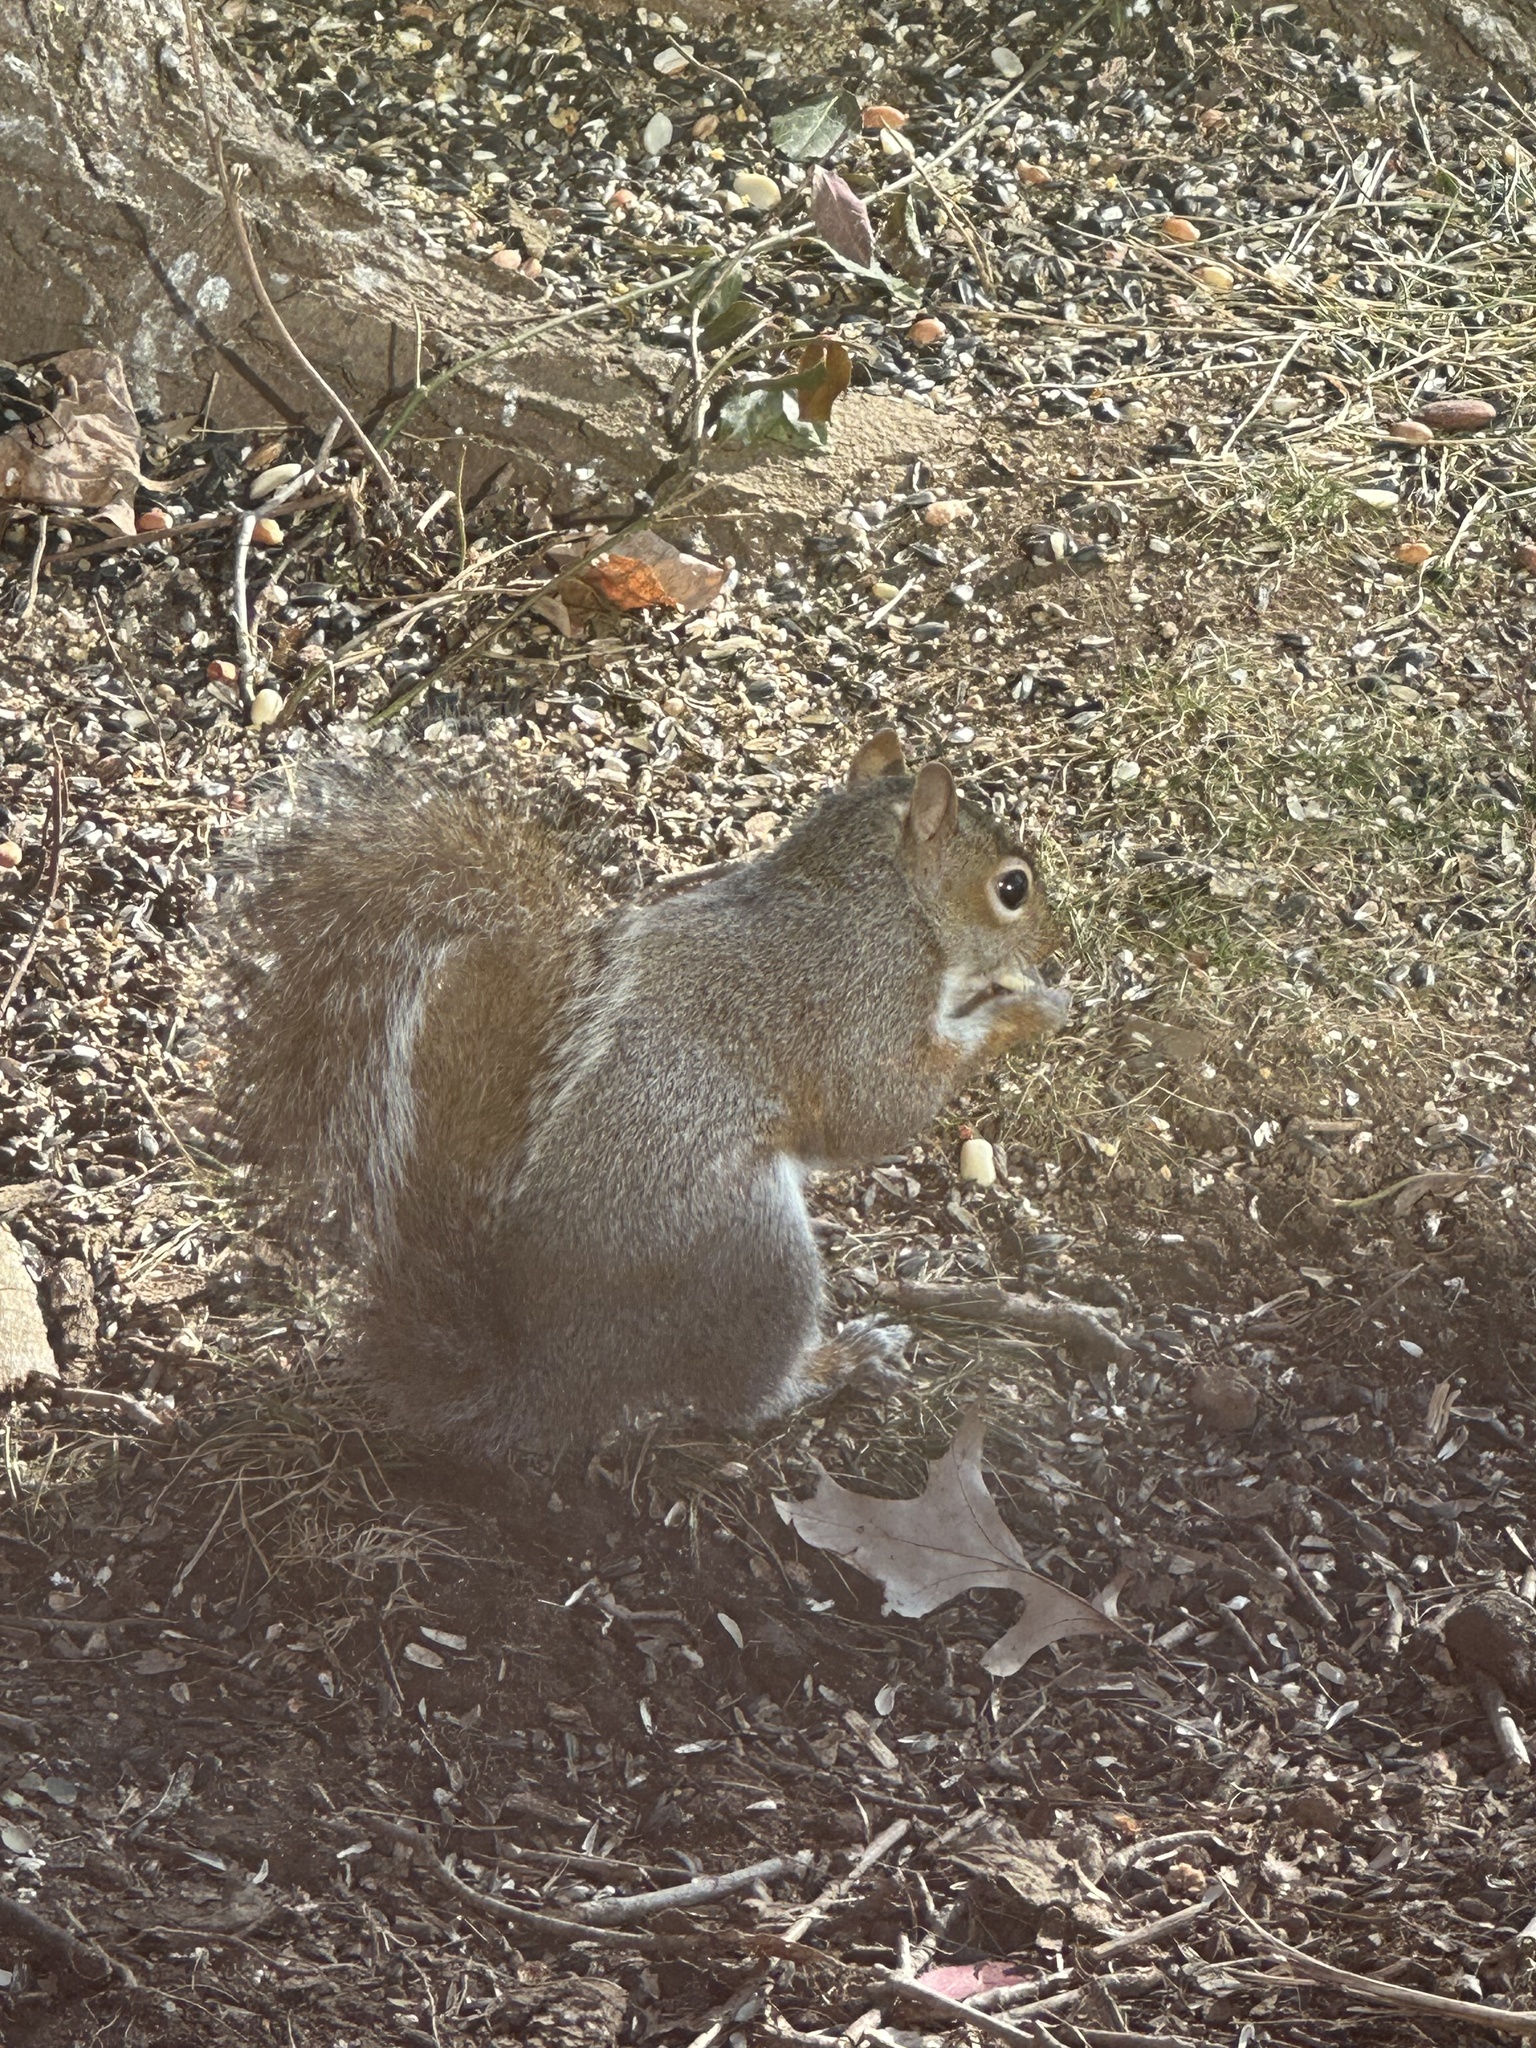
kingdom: Animalia
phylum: Chordata
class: Mammalia
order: Rodentia
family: Sciuridae
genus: Sciurus
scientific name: Sciurus carolinensis
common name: Eastern gray squirrel
